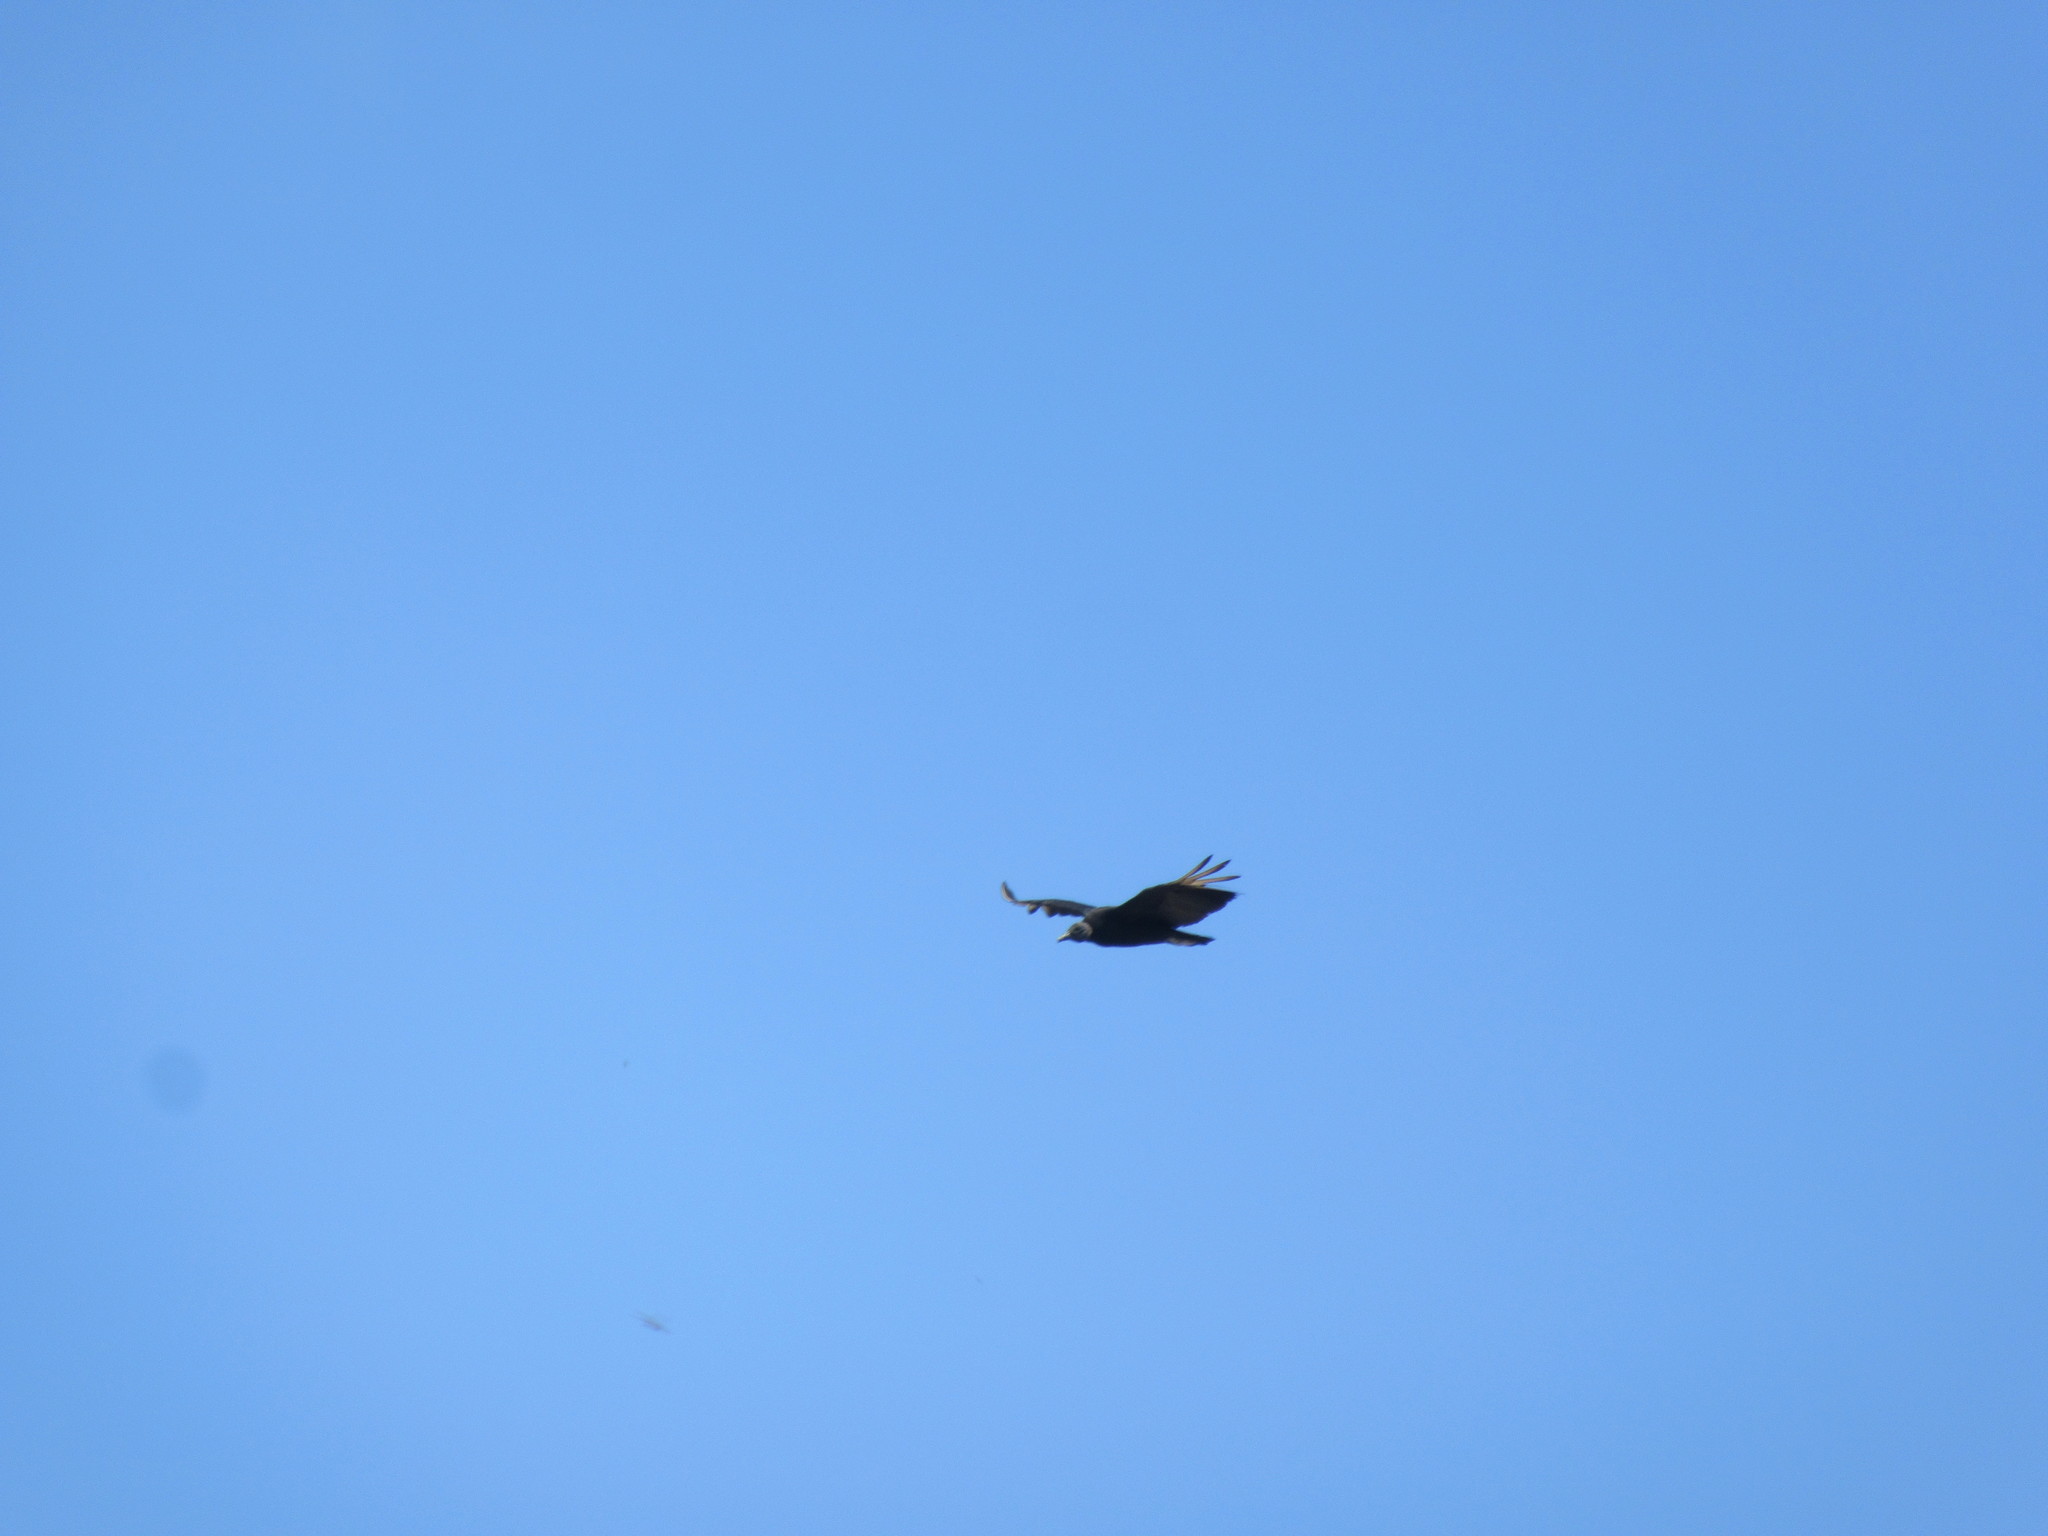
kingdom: Animalia
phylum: Chordata
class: Aves
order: Accipitriformes
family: Cathartidae
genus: Coragyps
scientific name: Coragyps atratus
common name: Black vulture
